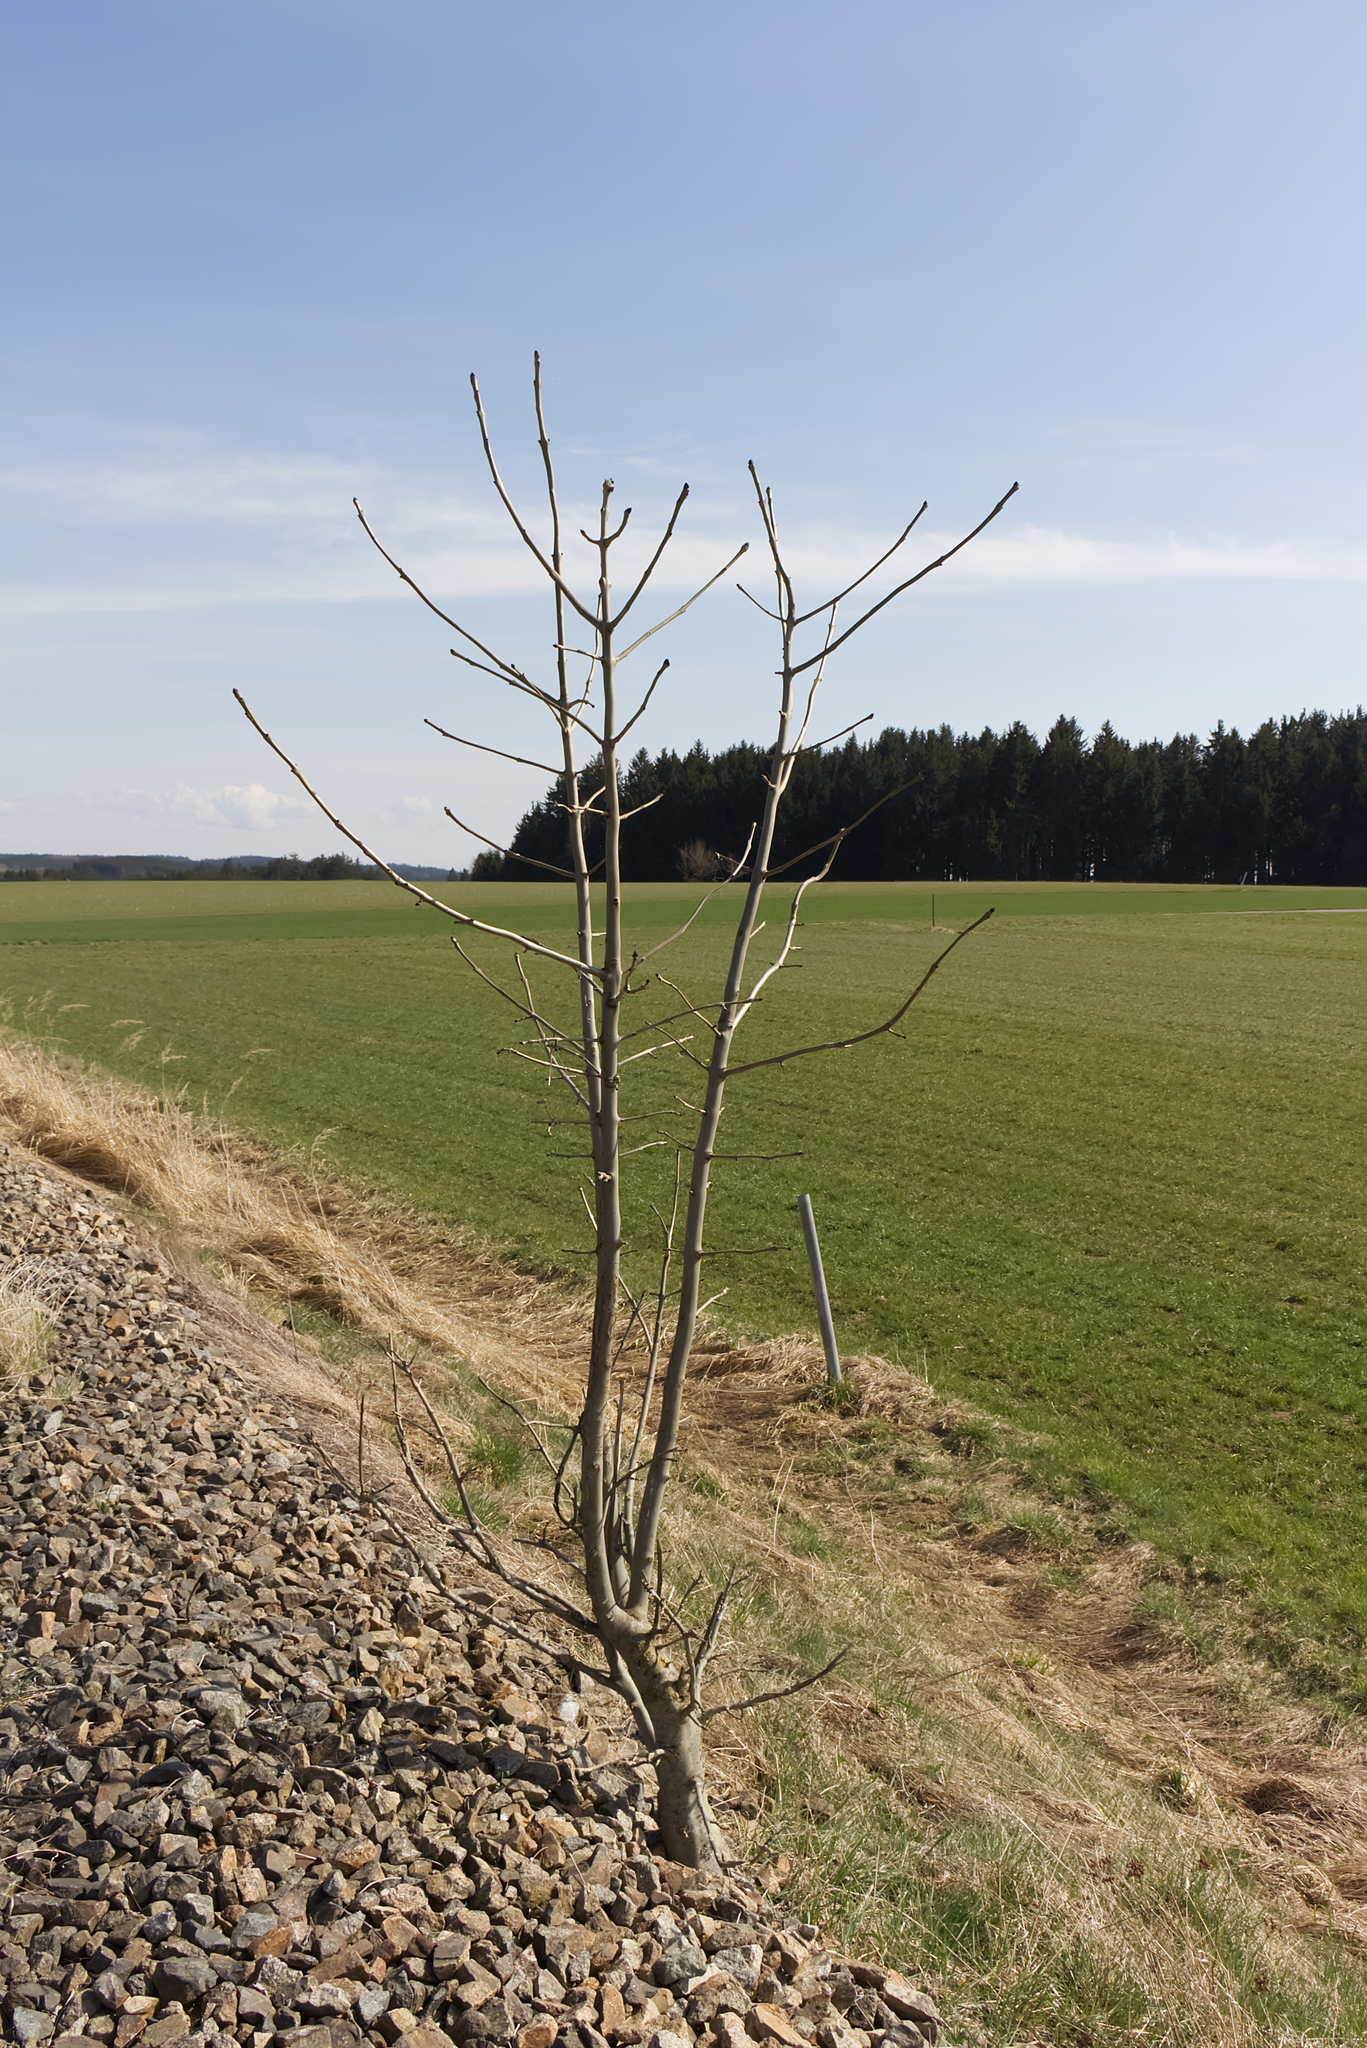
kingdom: Plantae
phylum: Tracheophyta
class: Magnoliopsida
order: Lamiales
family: Oleaceae
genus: Fraxinus
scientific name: Fraxinus excelsior
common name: European ash
